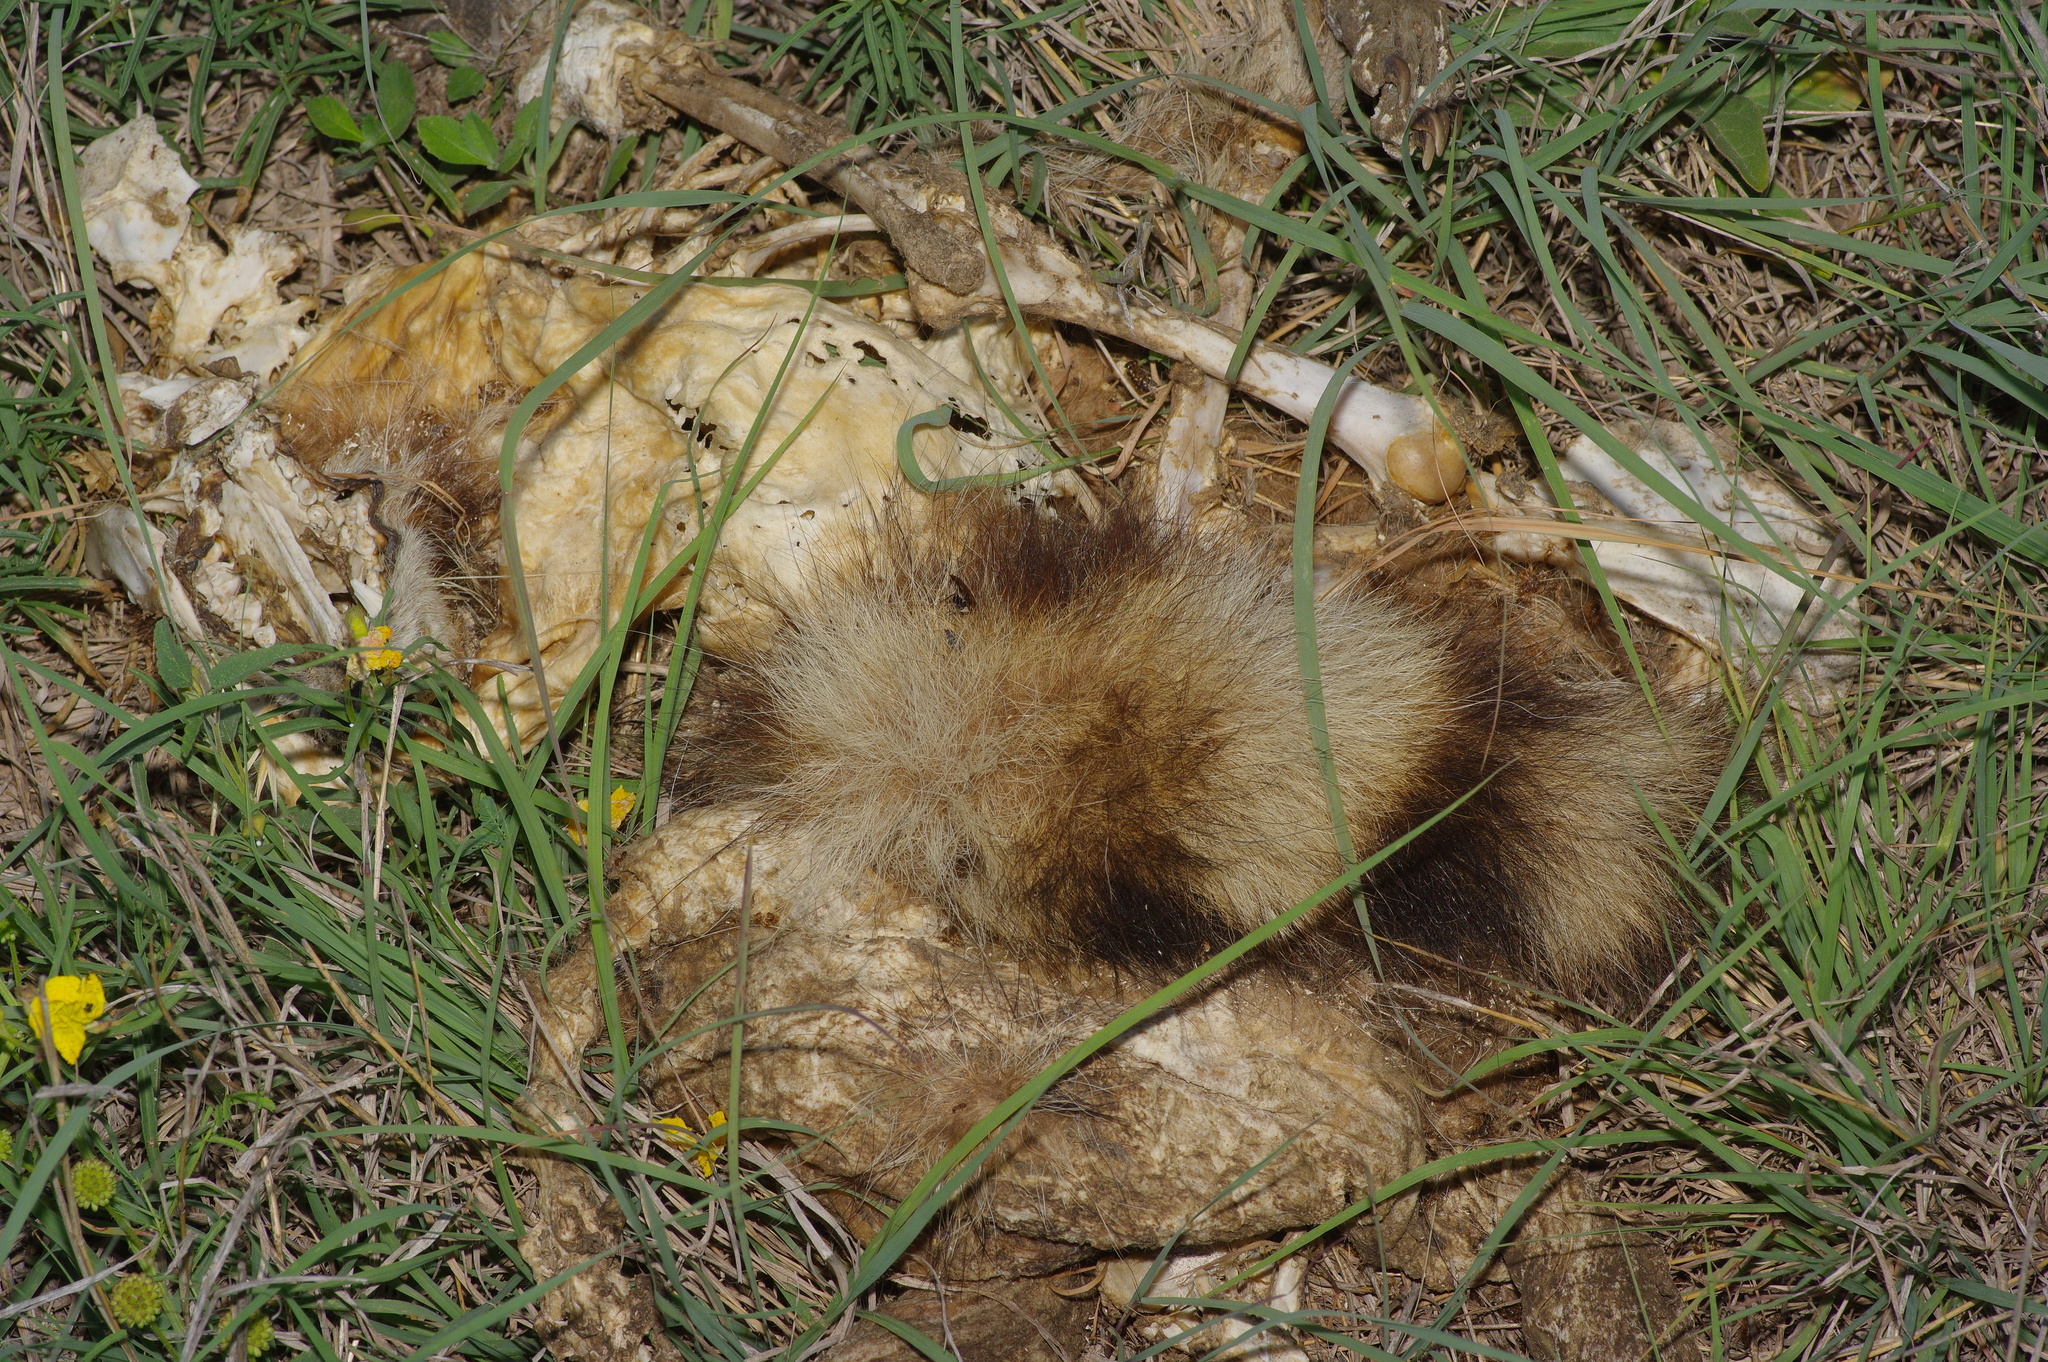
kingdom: Animalia
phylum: Chordata
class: Mammalia
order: Carnivora
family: Procyonidae
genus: Procyon
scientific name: Procyon lotor
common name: Raccoon
